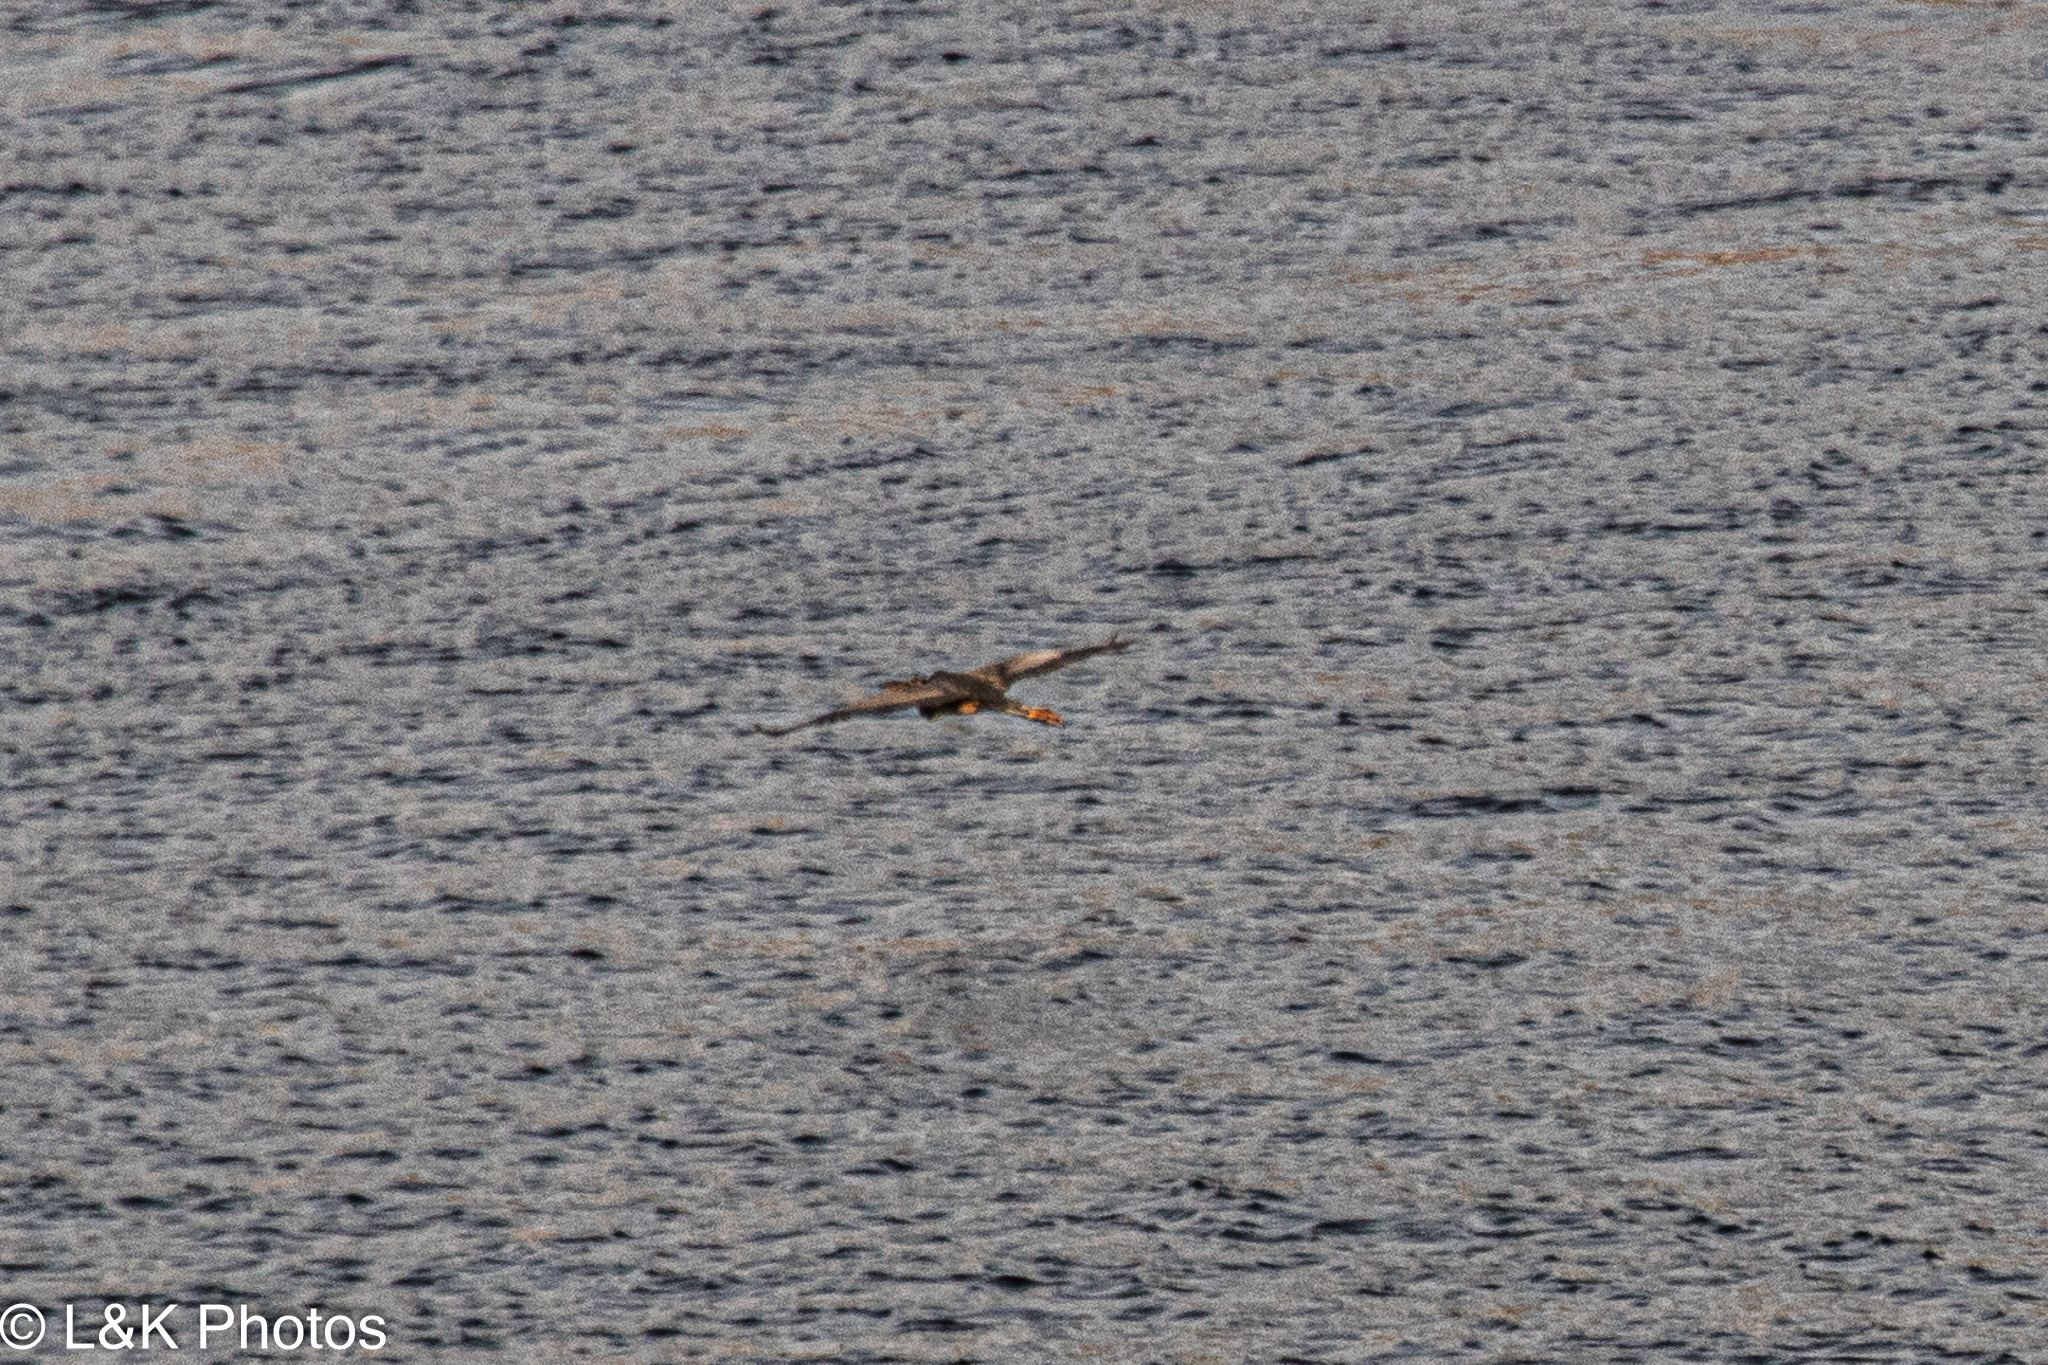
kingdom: Animalia
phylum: Chordata
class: Aves
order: Pelecaniformes
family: Ardeidae
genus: Ardea
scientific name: Ardea purpurea
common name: Purple heron
